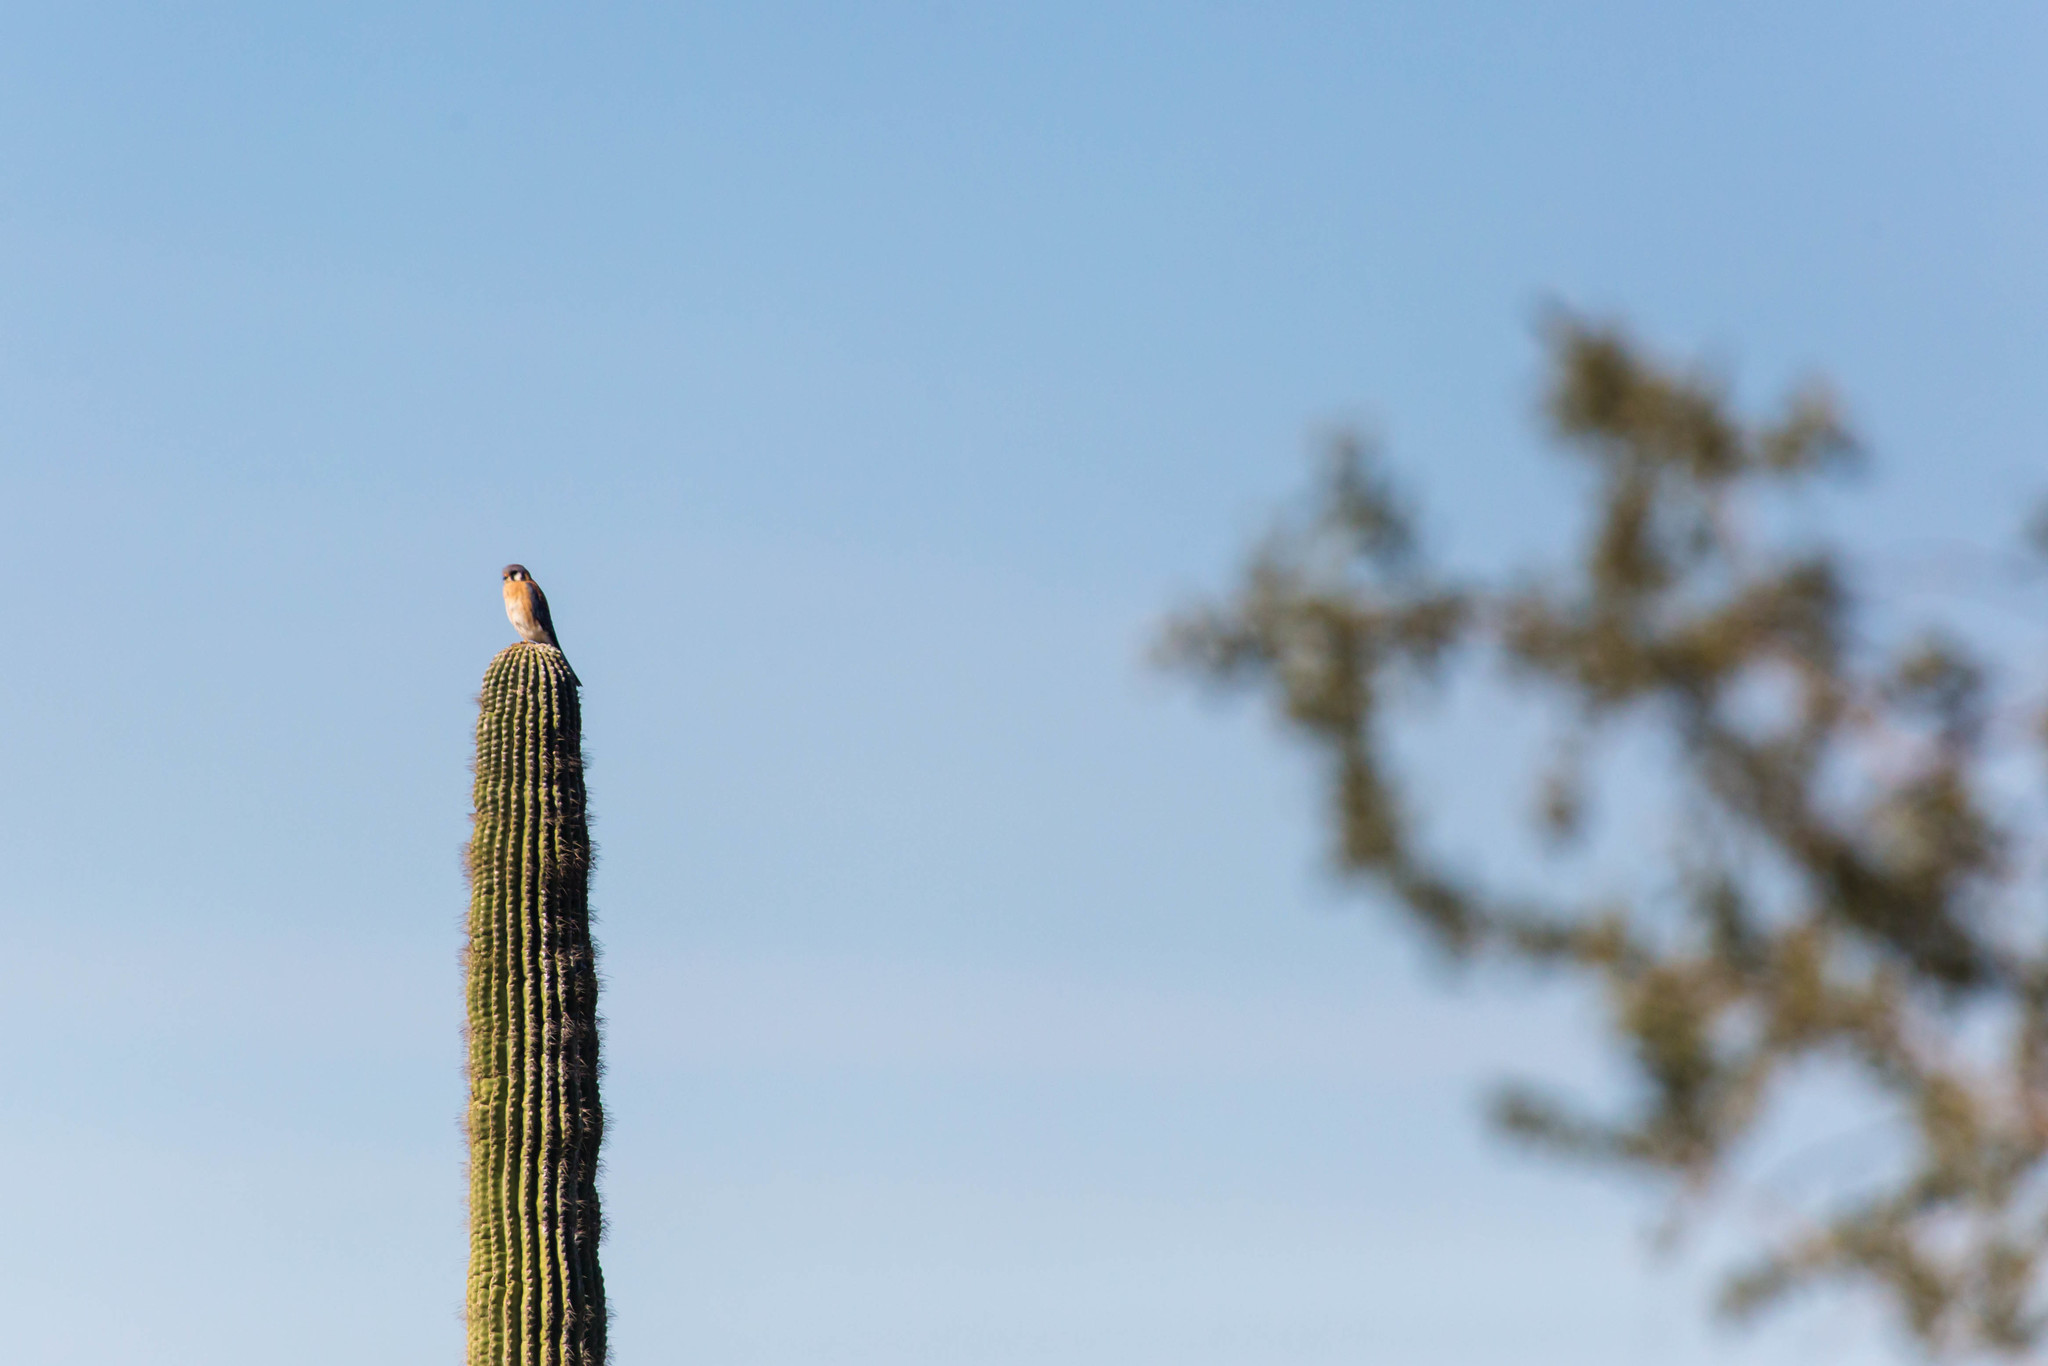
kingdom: Animalia
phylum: Chordata
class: Aves
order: Falconiformes
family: Falconidae
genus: Falco
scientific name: Falco sparverius
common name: American kestrel
